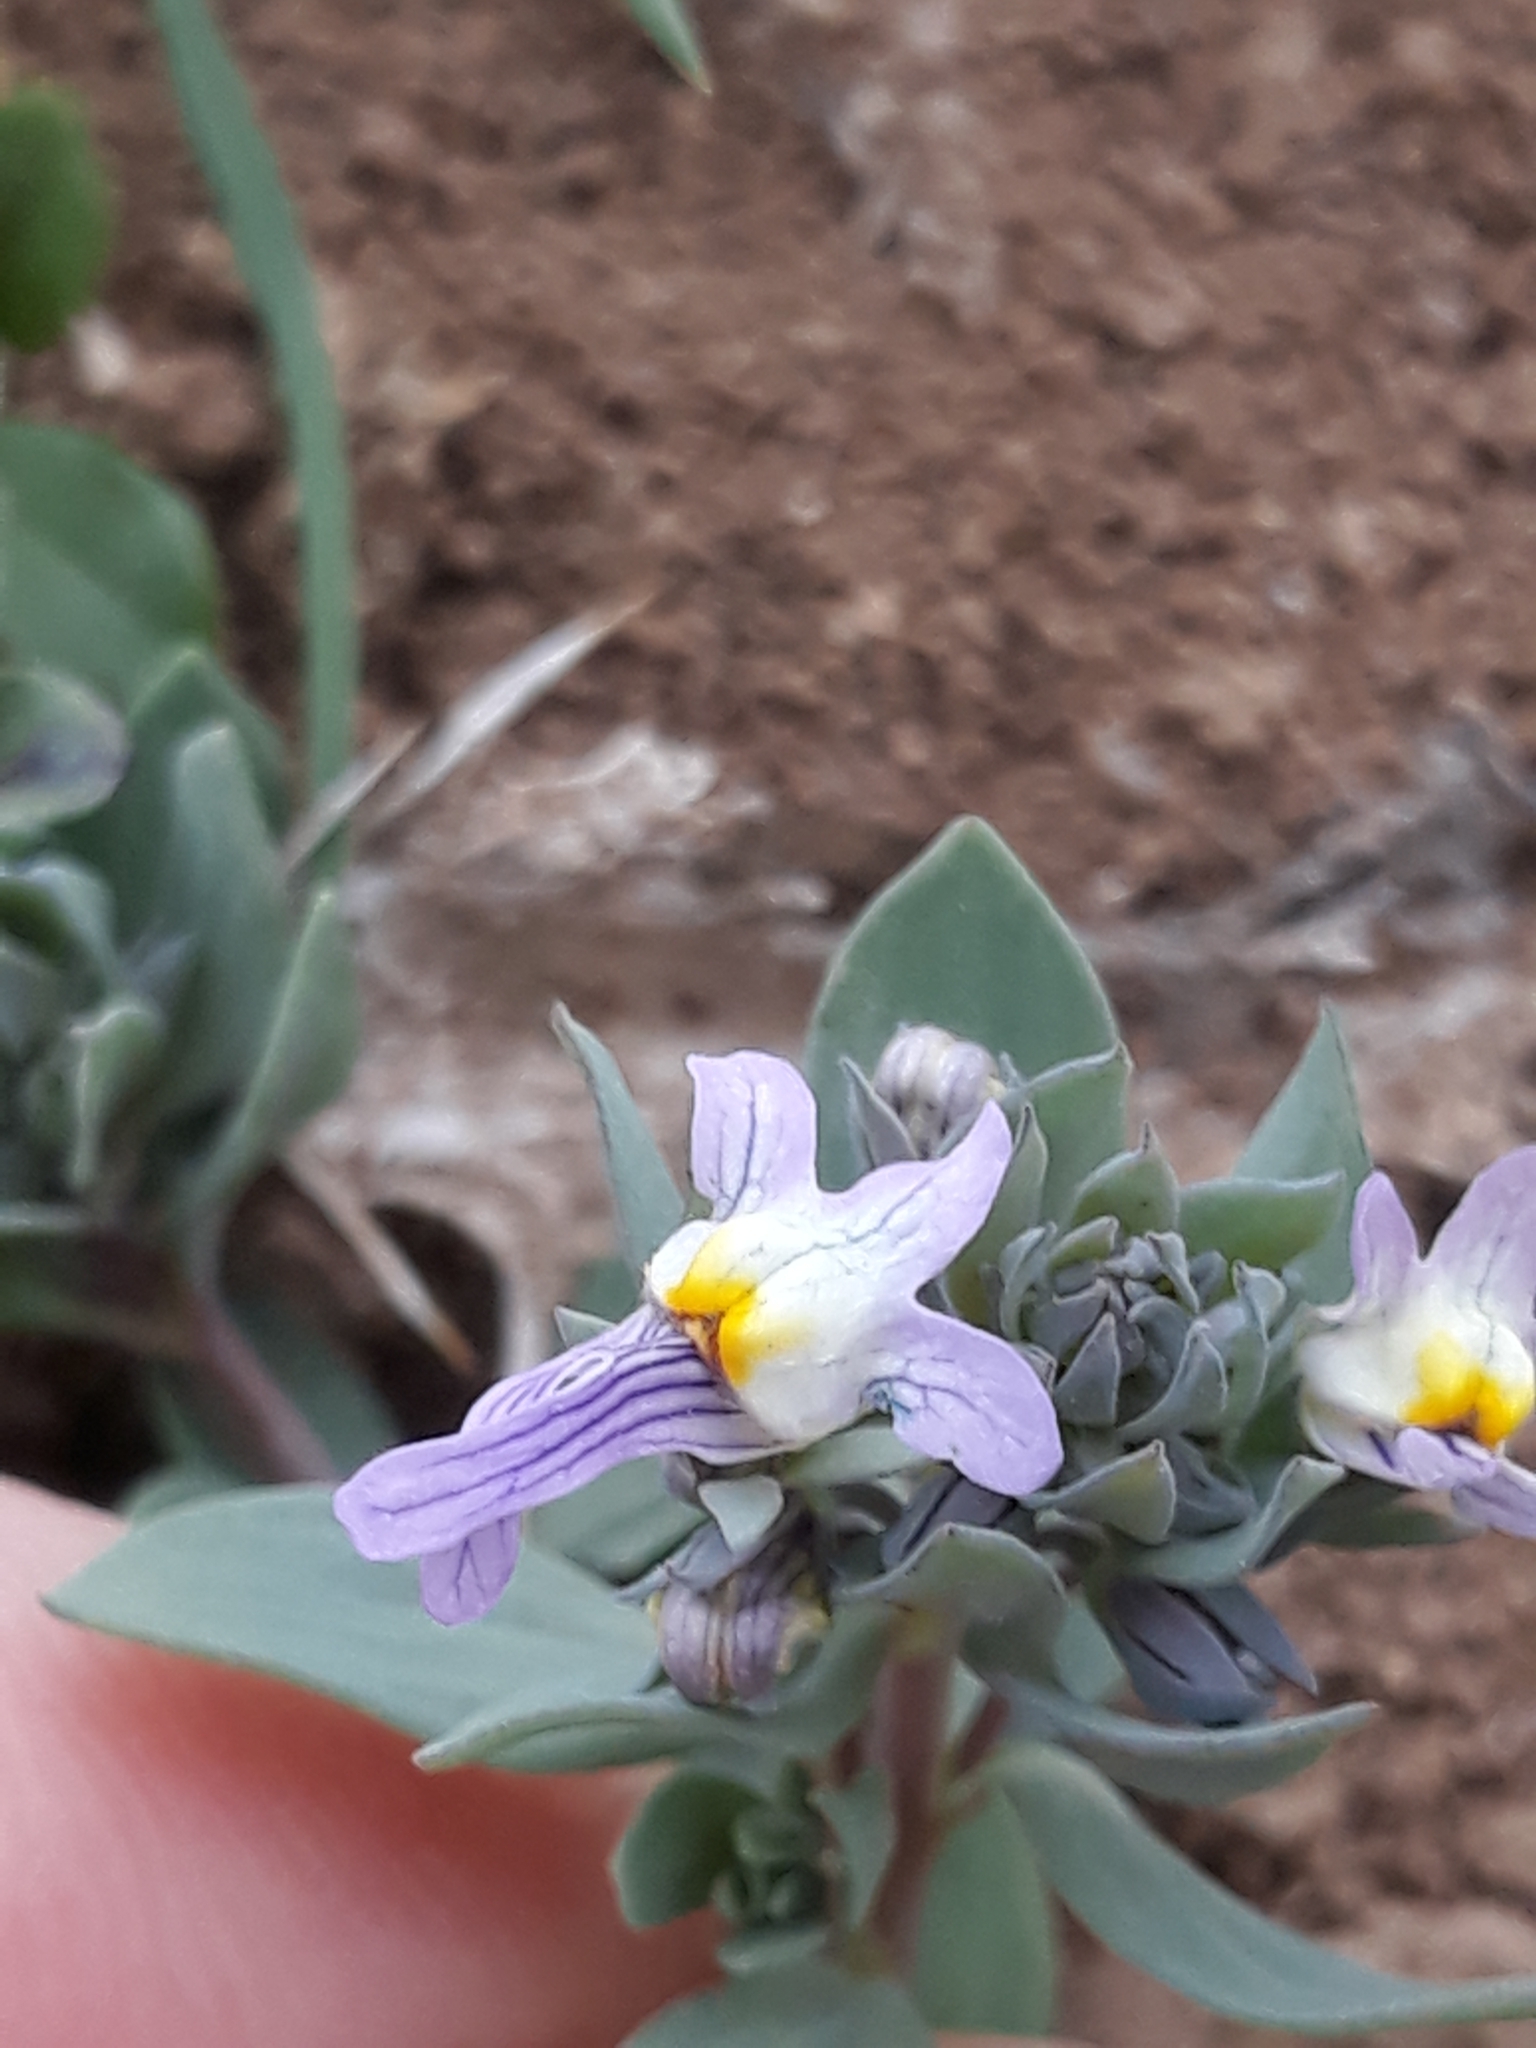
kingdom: Plantae
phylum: Tracheophyta
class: Magnoliopsida
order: Lamiales
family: Plantaginaceae
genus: Linaria
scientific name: Linaria reflexa
